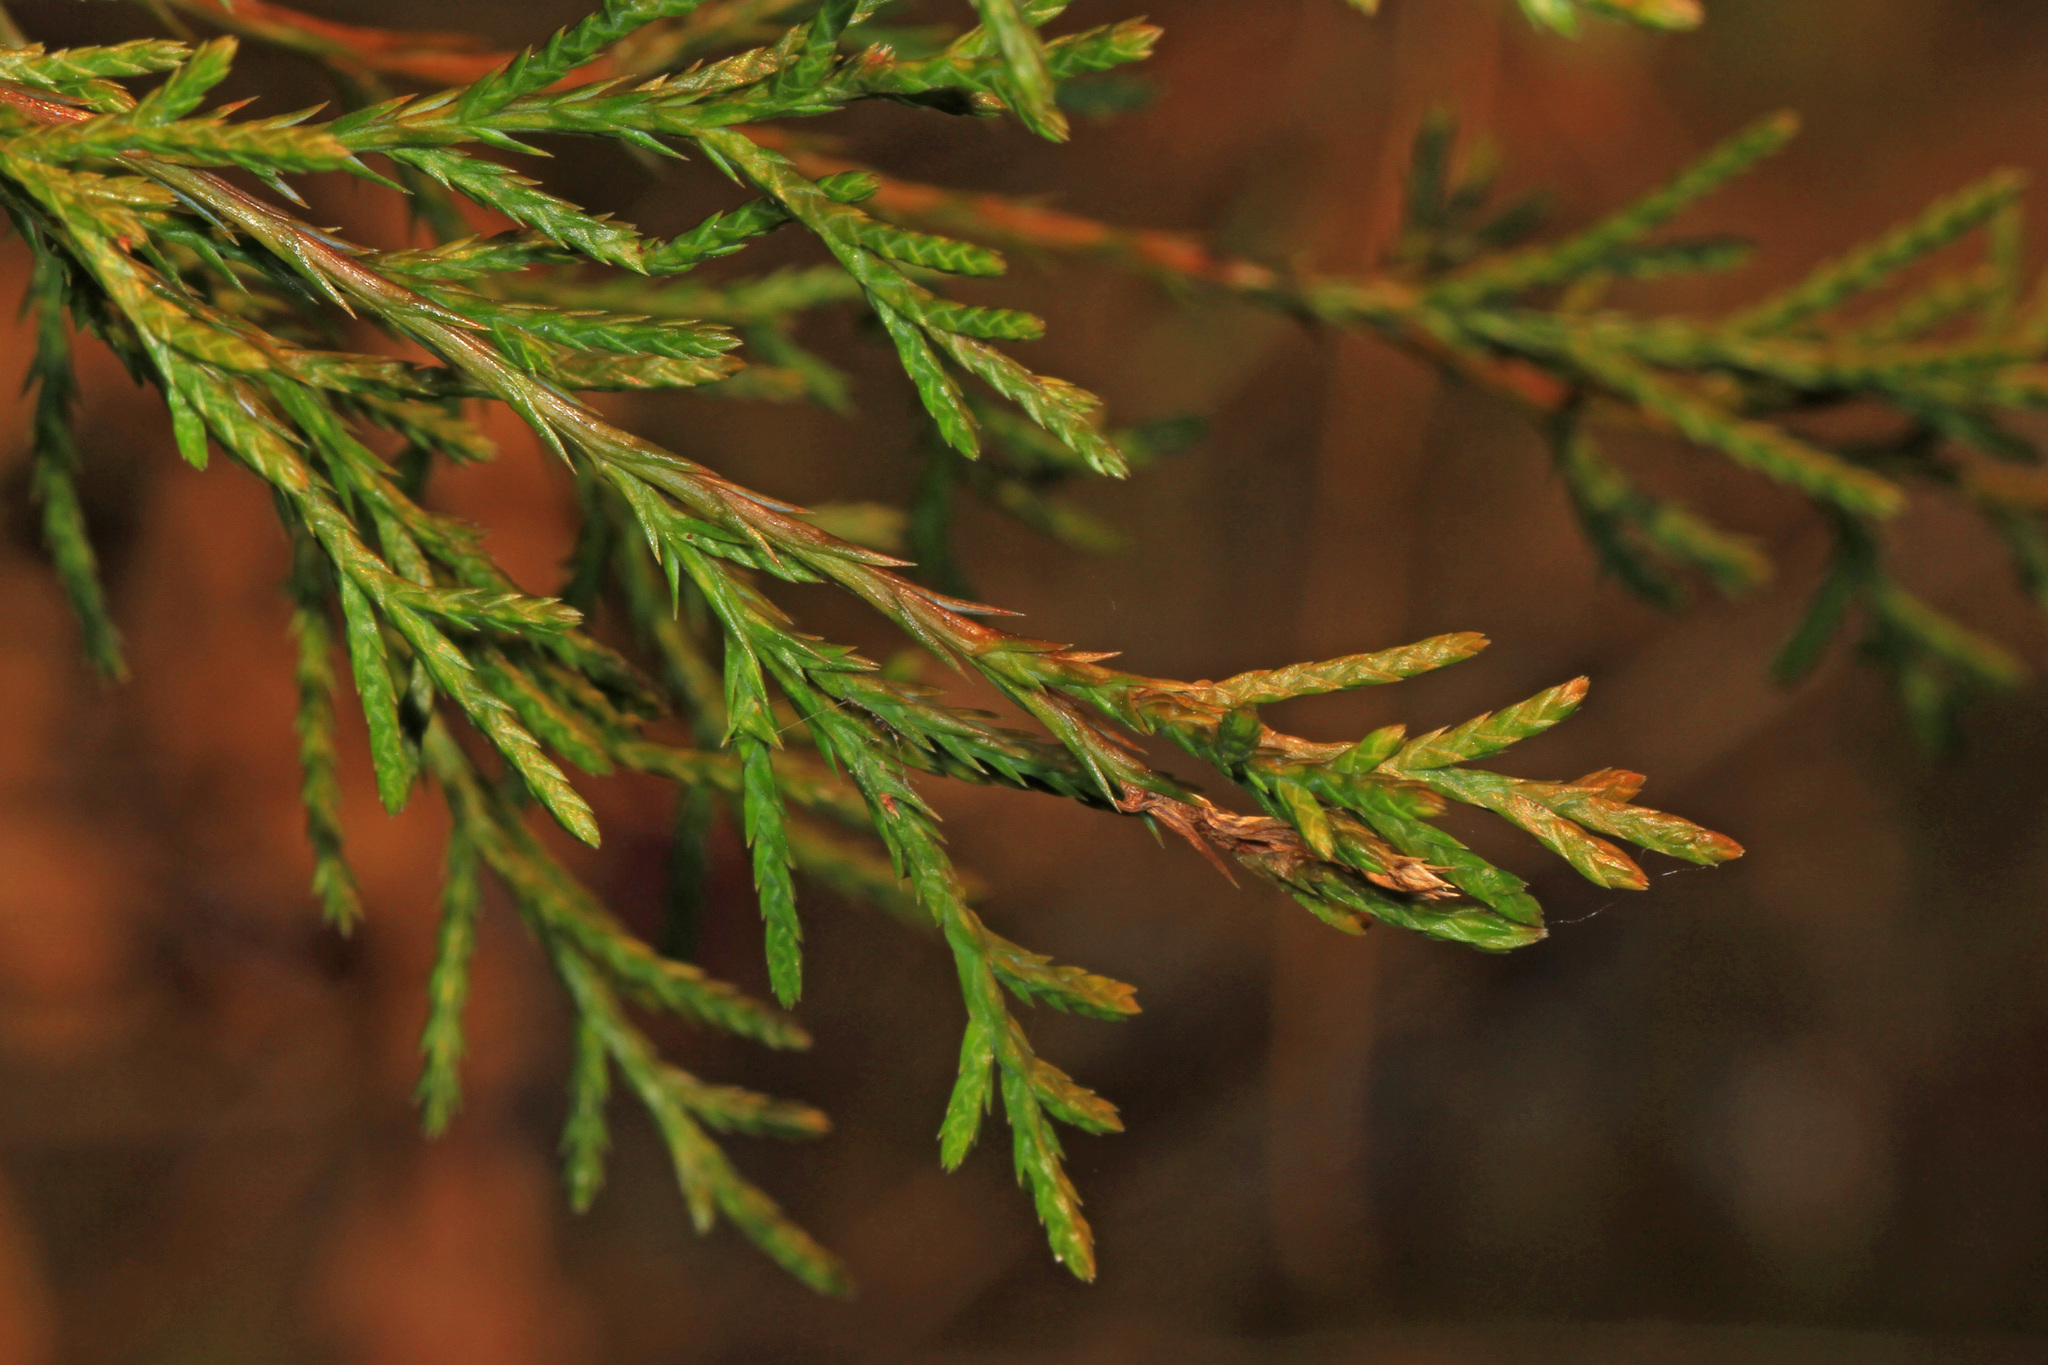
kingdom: Plantae
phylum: Tracheophyta
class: Pinopsida
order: Pinales
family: Cupressaceae
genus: Juniperus
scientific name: Juniperus virginiana
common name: Red juniper
